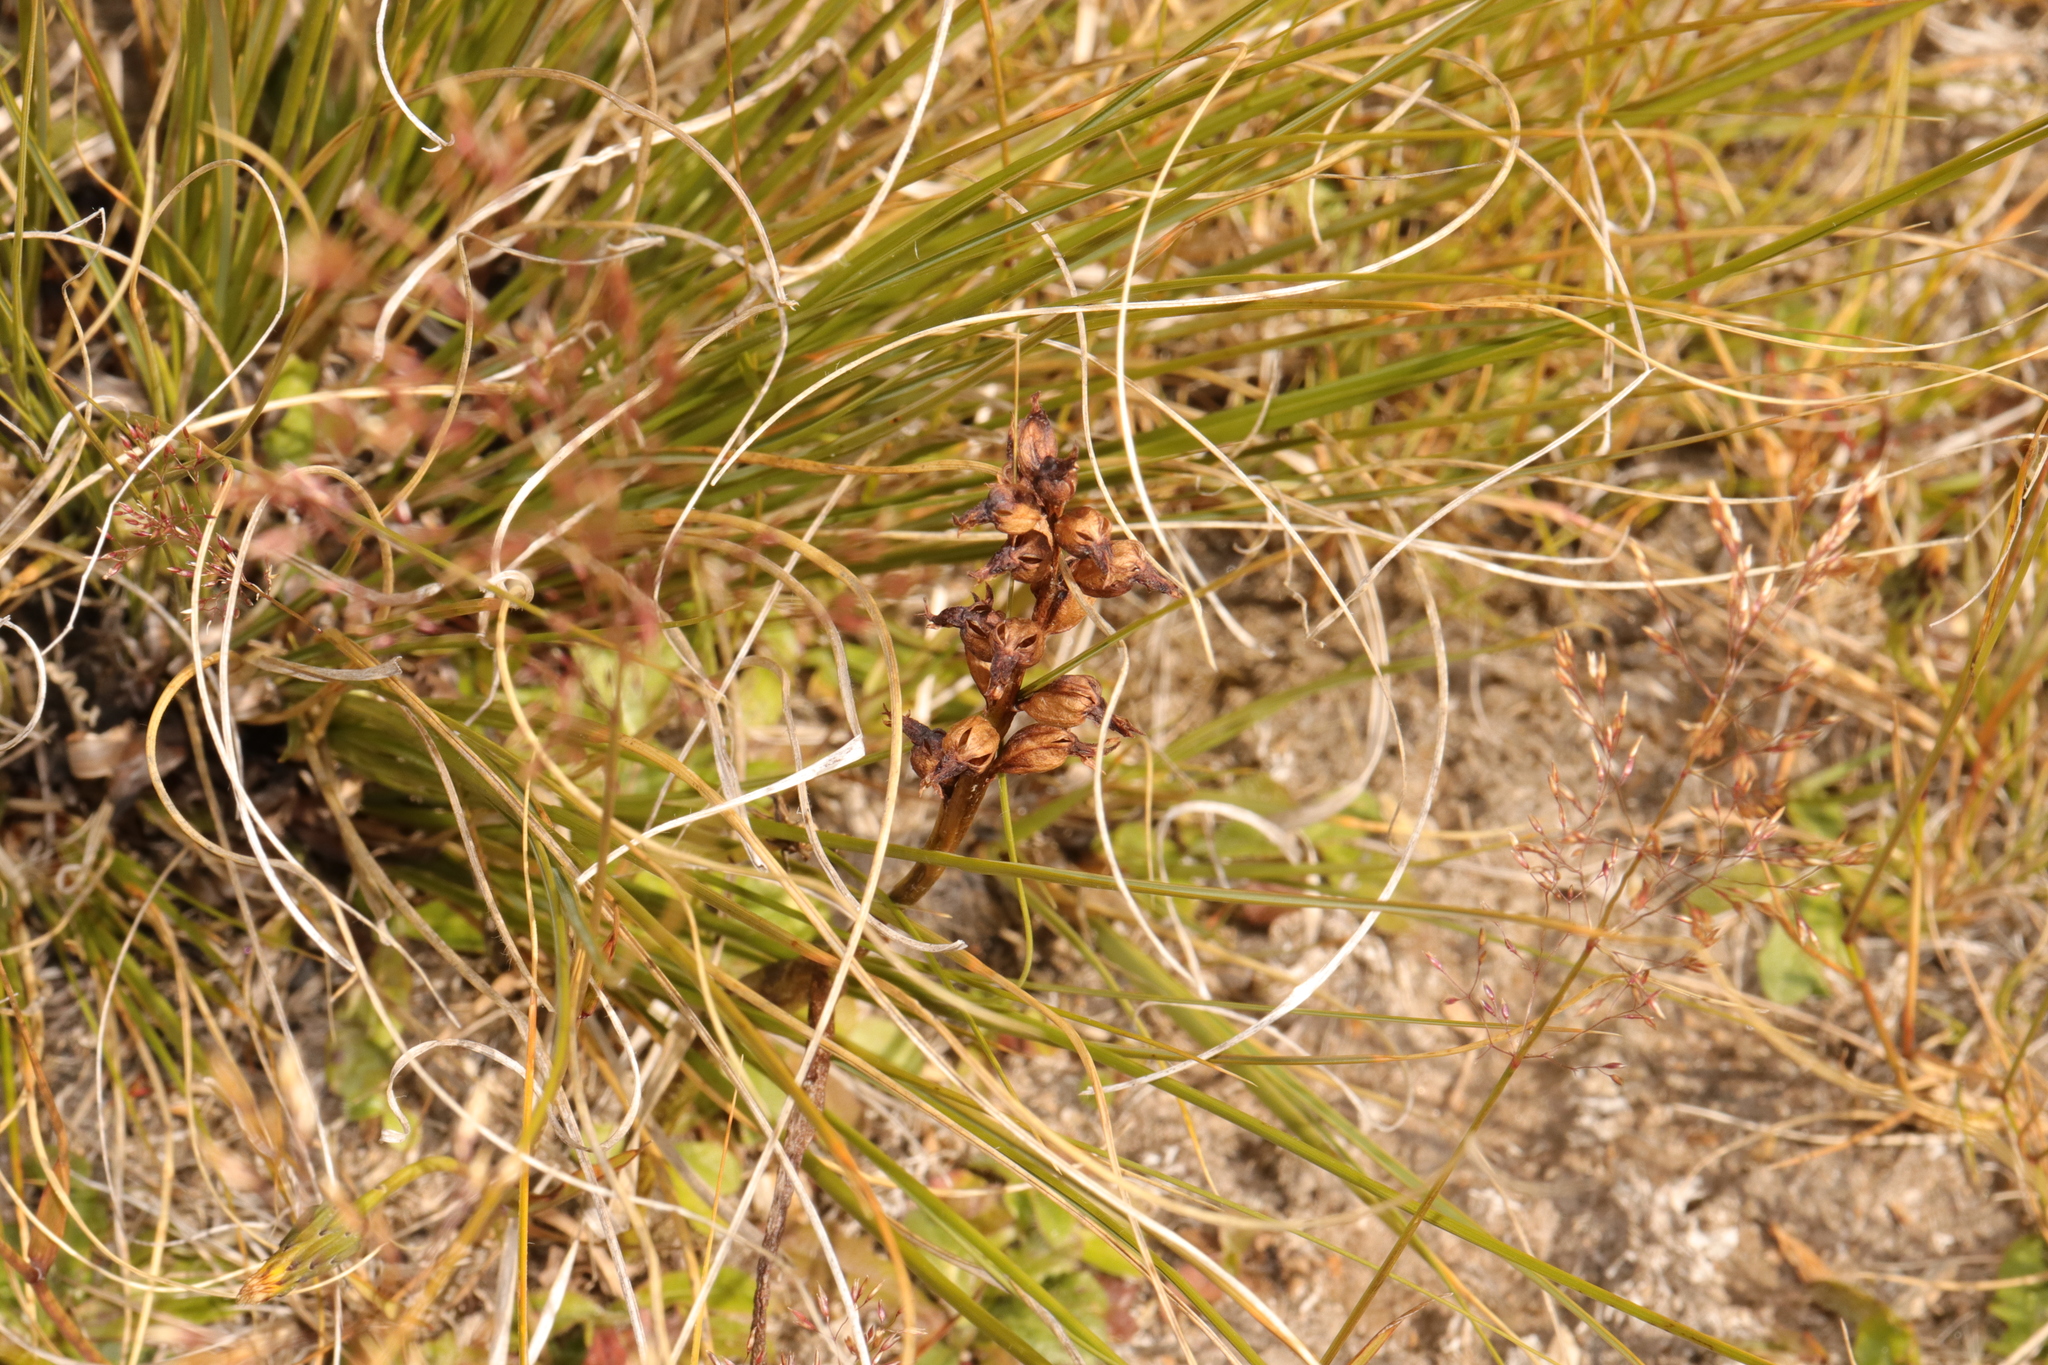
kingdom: Plantae
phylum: Tracheophyta
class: Liliopsida
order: Asparagales
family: Orchidaceae
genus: Prasophyllum
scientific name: Prasophyllum colensoi
